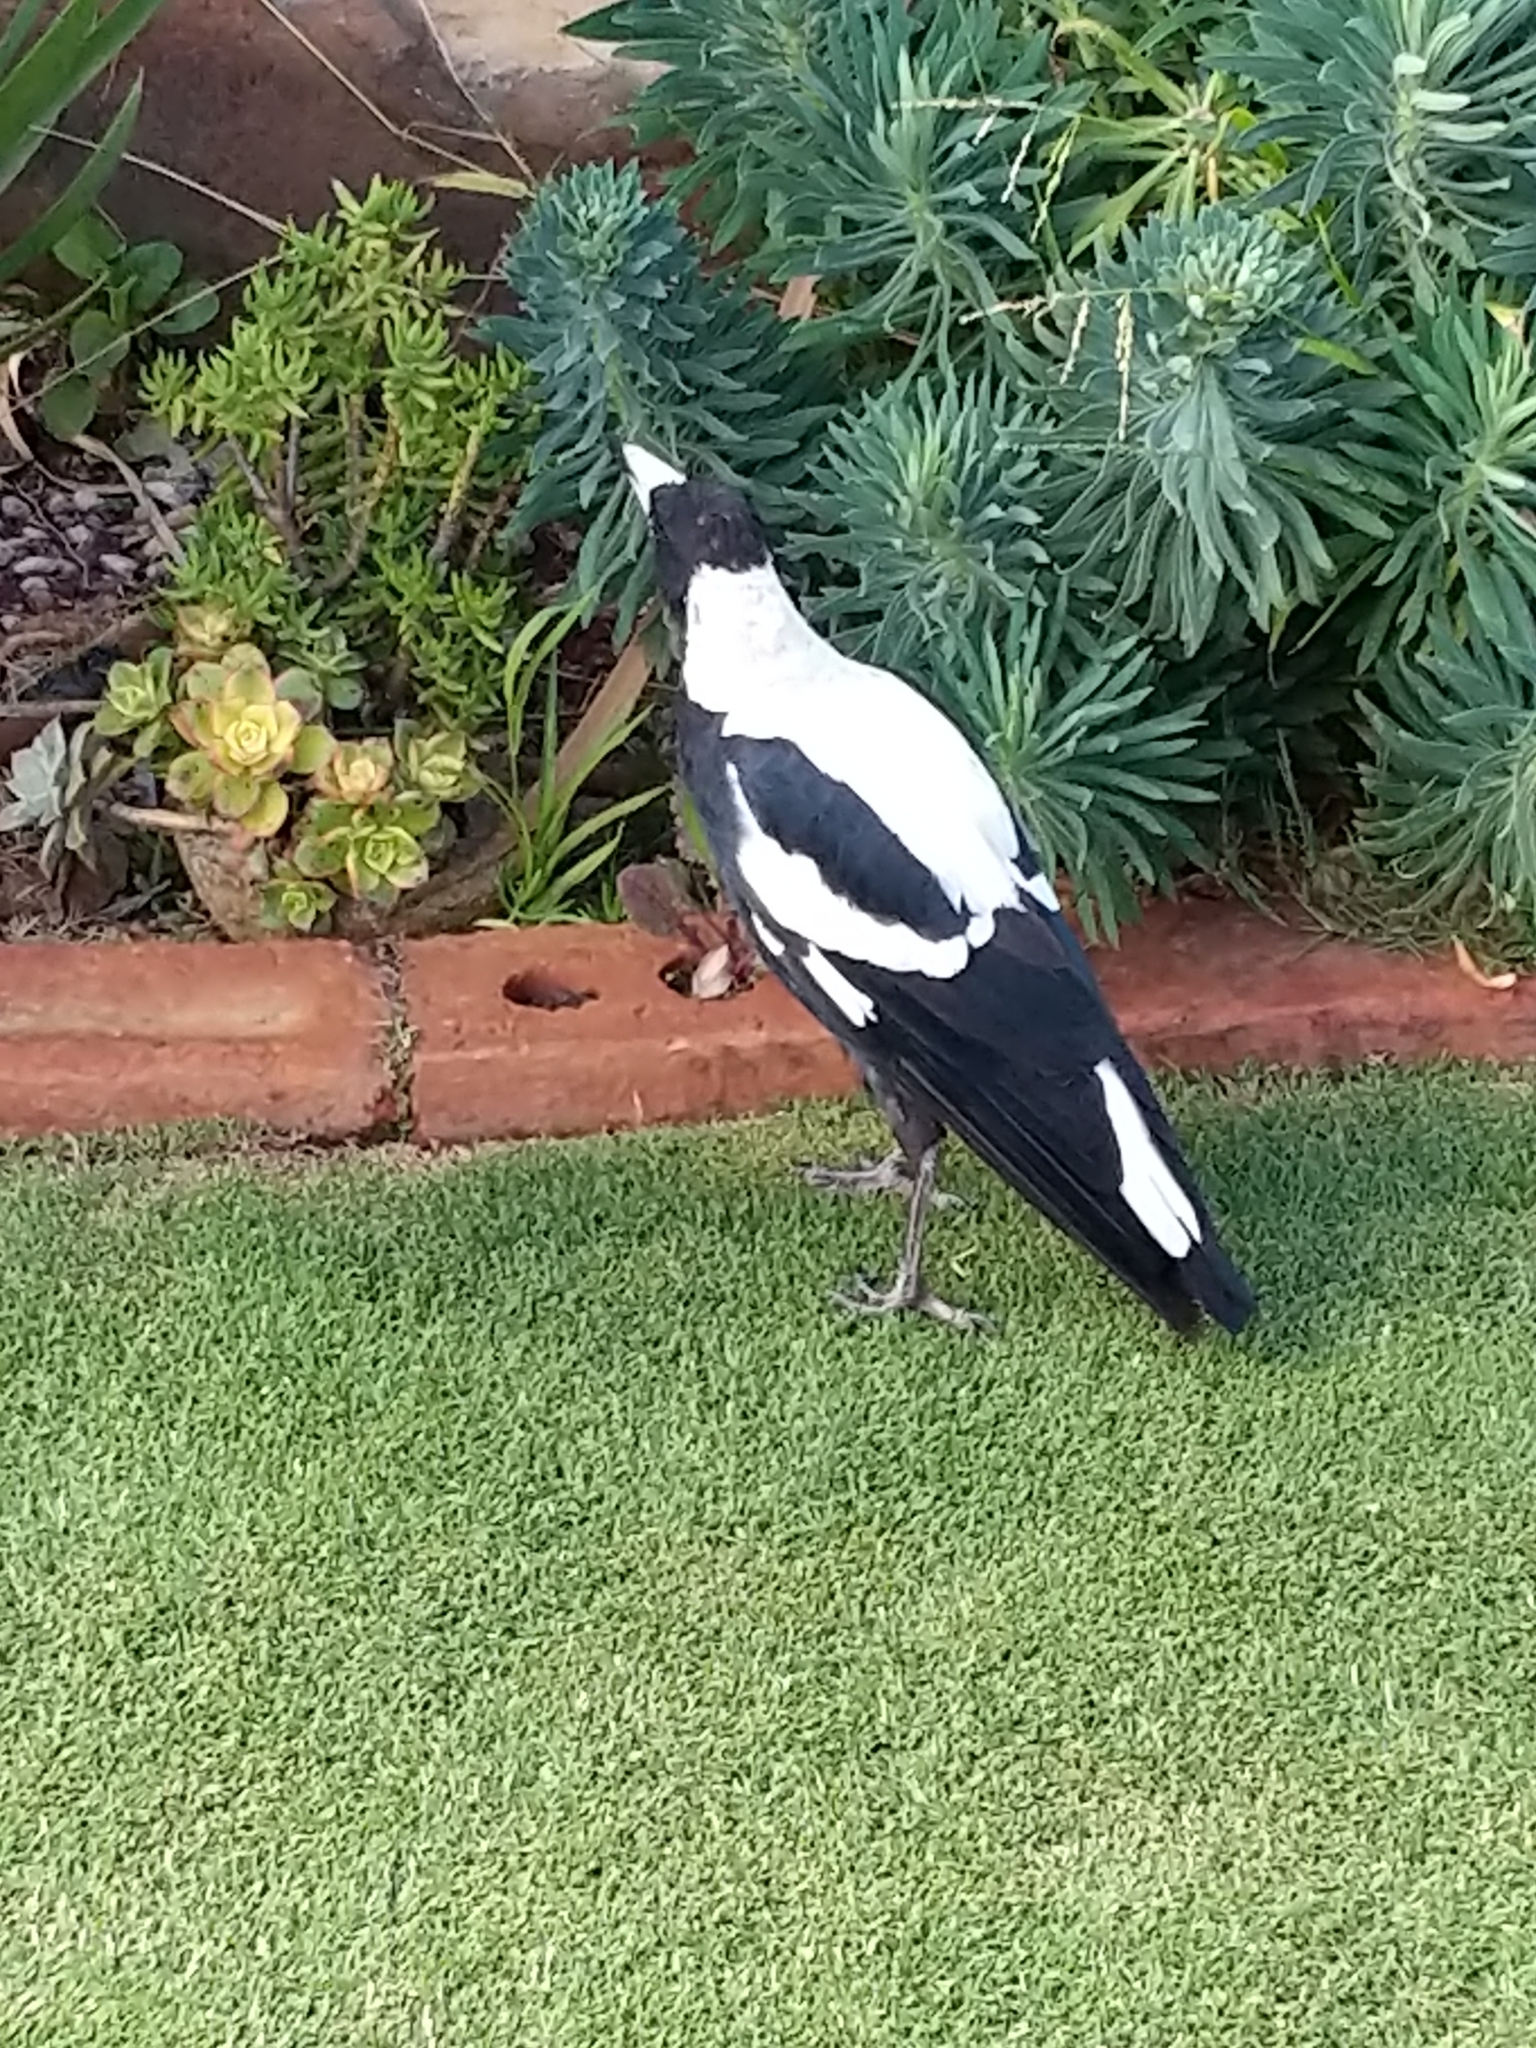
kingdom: Animalia
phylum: Chordata
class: Aves
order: Passeriformes
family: Cracticidae
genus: Gymnorhina
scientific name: Gymnorhina tibicen
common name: Australian magpie
